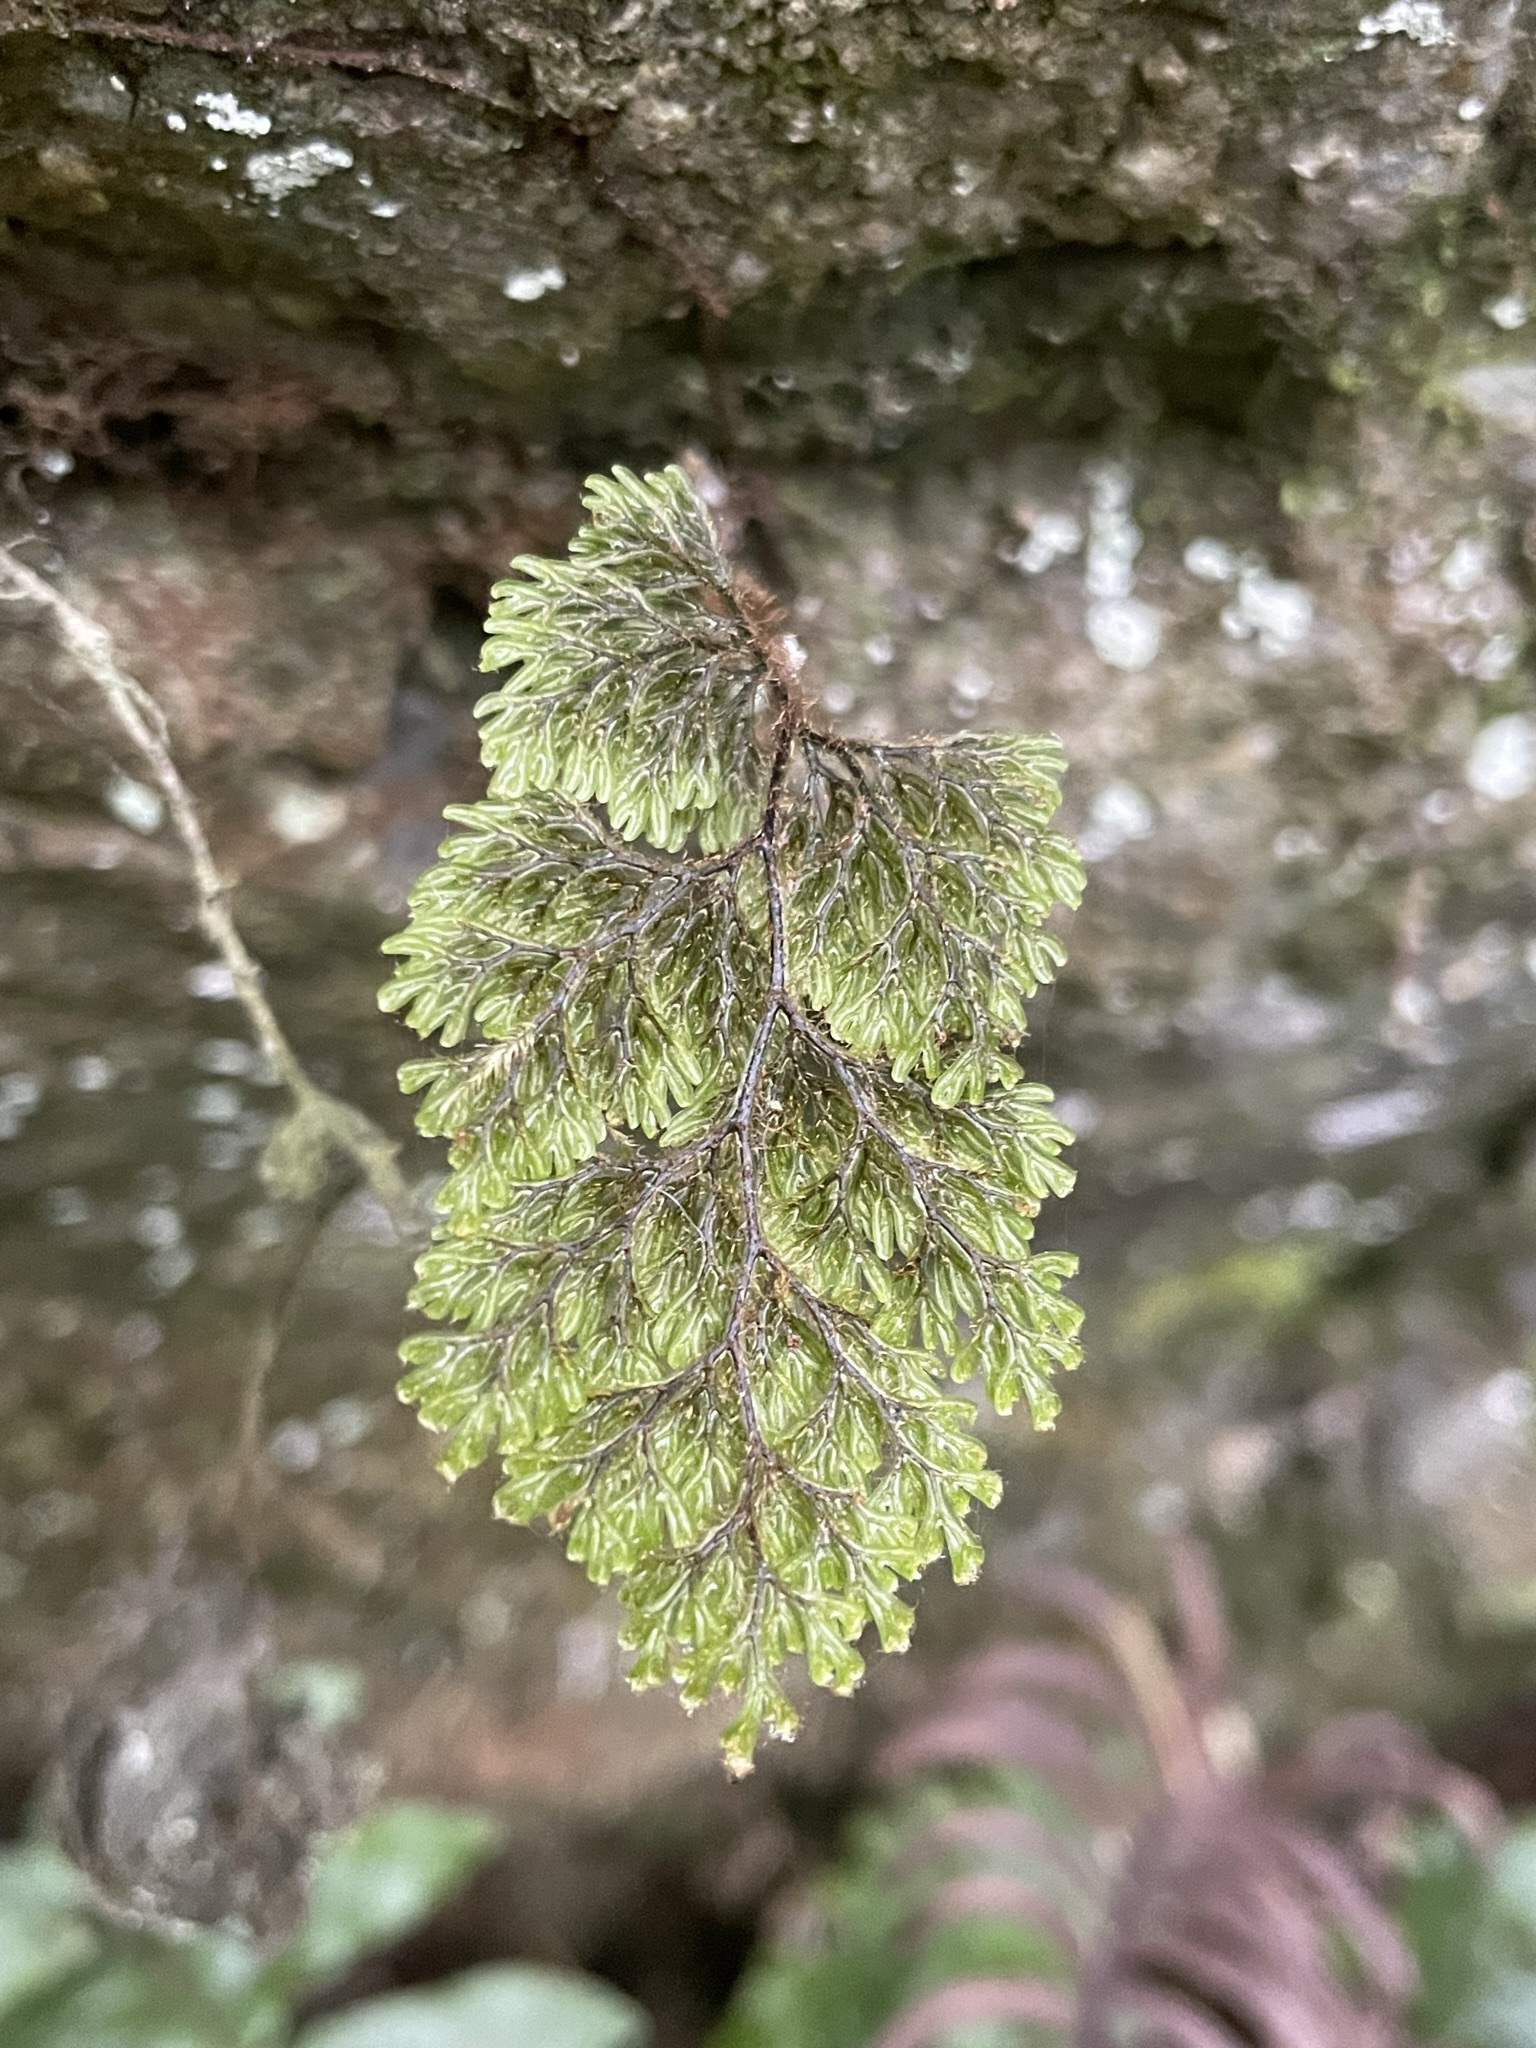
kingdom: Plantae
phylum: Tracheophyta
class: Polypodiopsida
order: Hymenophyllales
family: Hymenophyllaceae
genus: Hymenophyllum
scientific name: Hymenophyllum villosum
